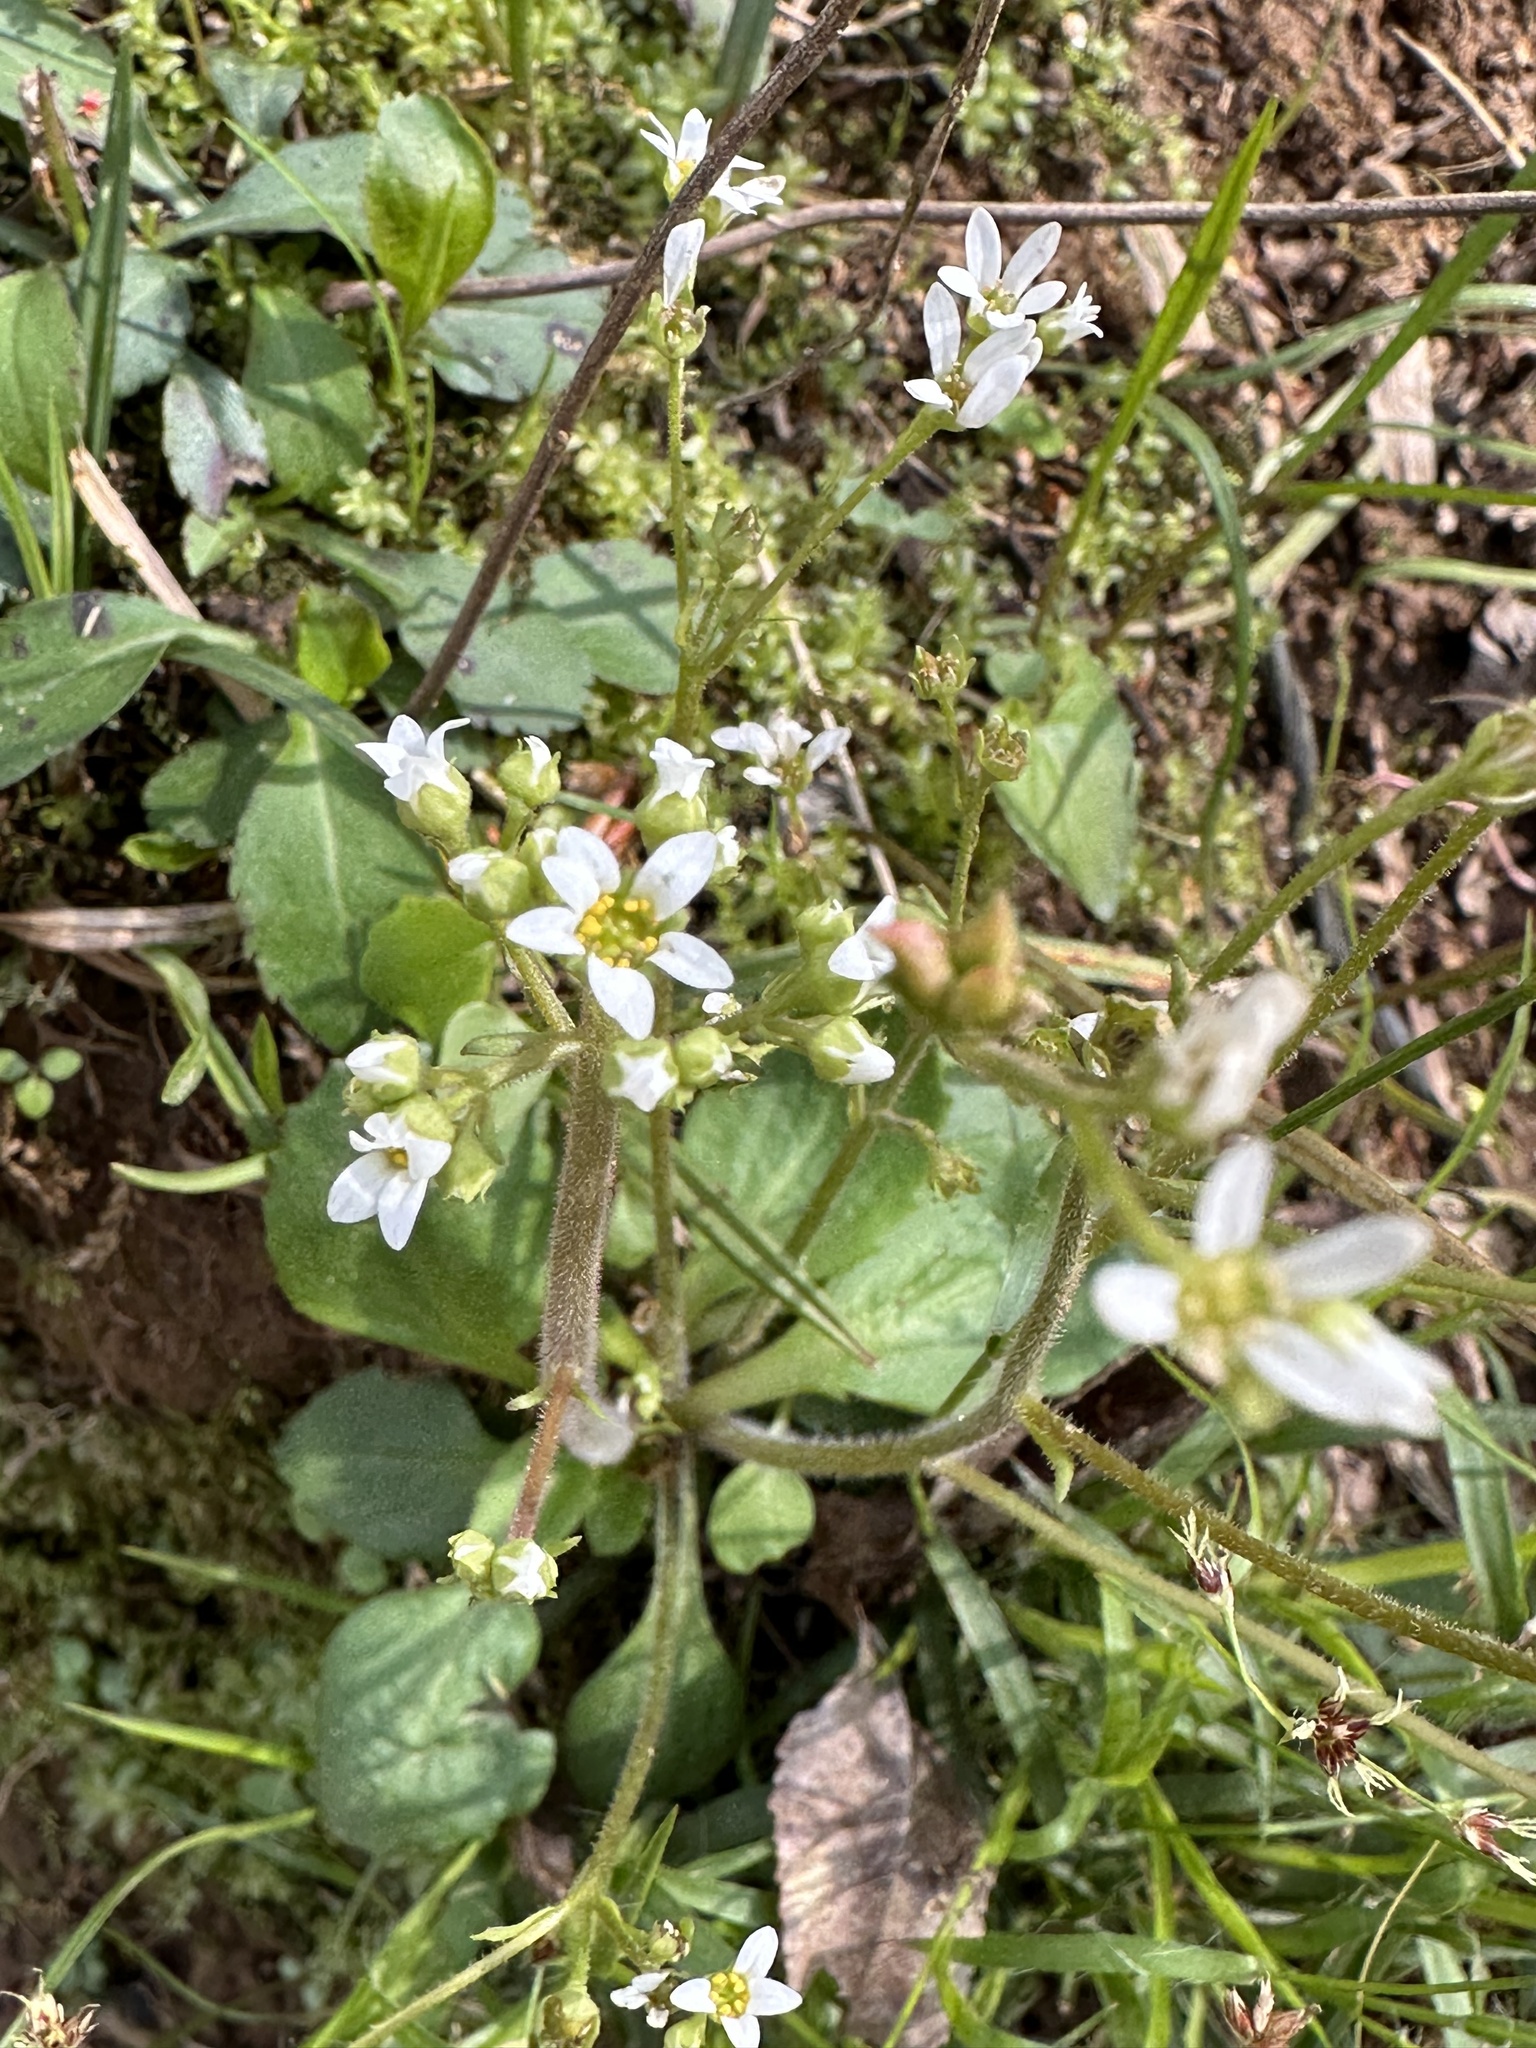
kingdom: Plantae
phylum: Tracheophyta
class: Magnoliopsida
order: Saxifragales
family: Saxifragaceae
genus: Micranthes
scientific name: Micranthes virginiensis
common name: Early saxifrage
